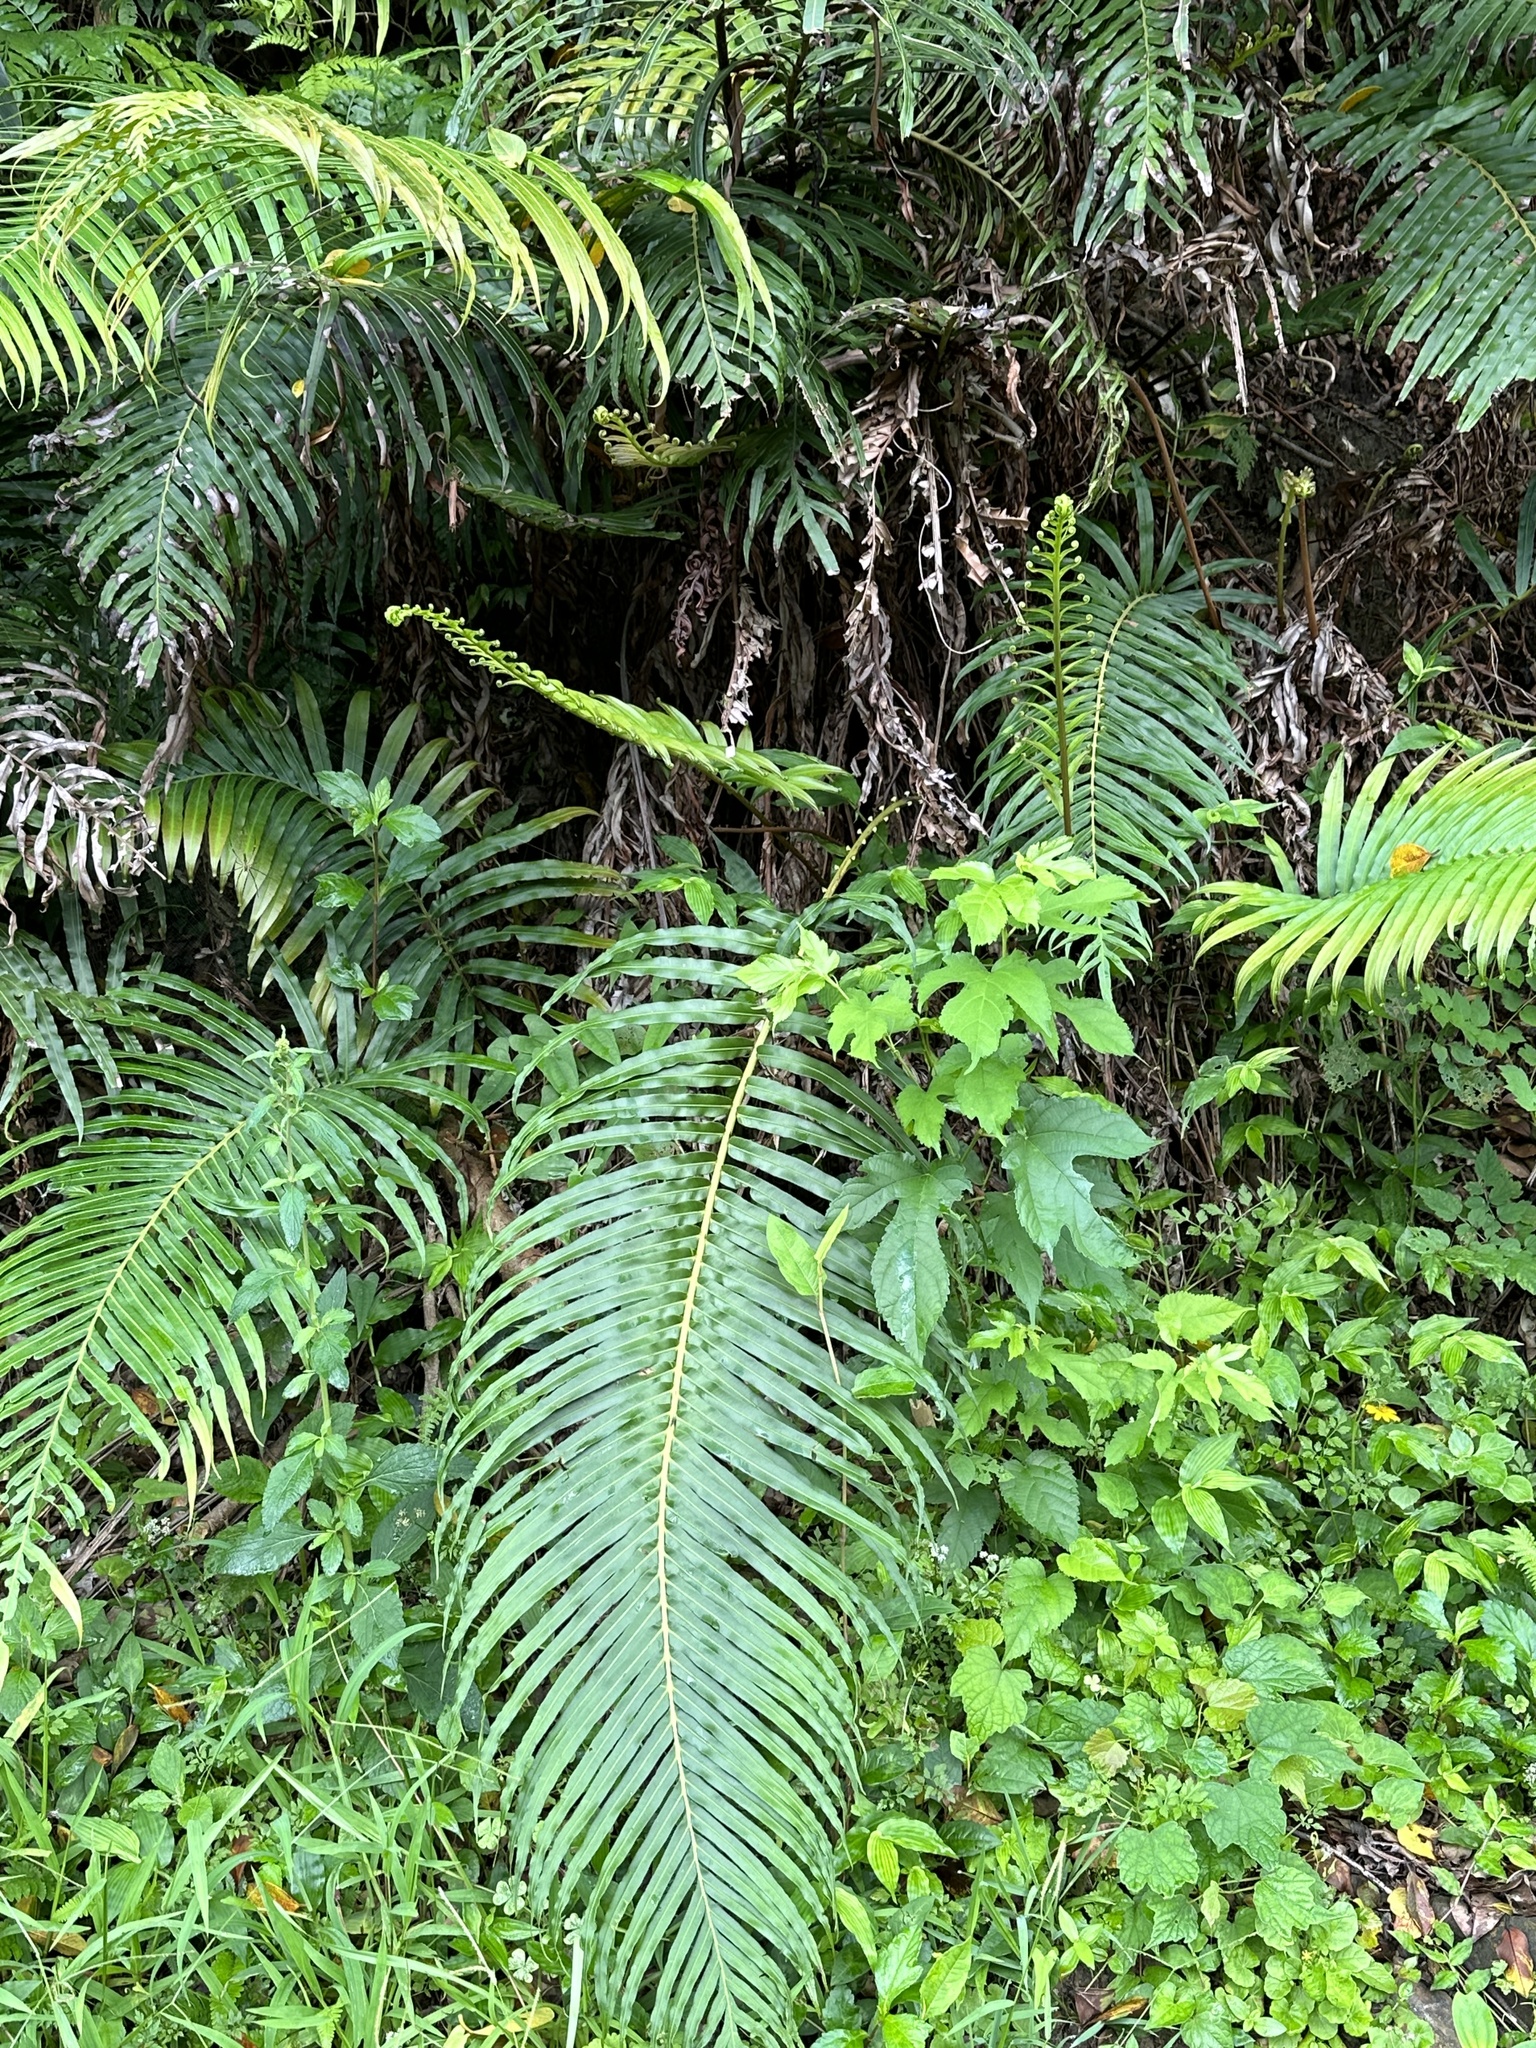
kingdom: Plantae
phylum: Tracheophyta
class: Polypodiopsida
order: Polypodiales
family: Blechnaceae
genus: Blechnopsis
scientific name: Blechnopsis orientalis
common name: Oriental blechnum
